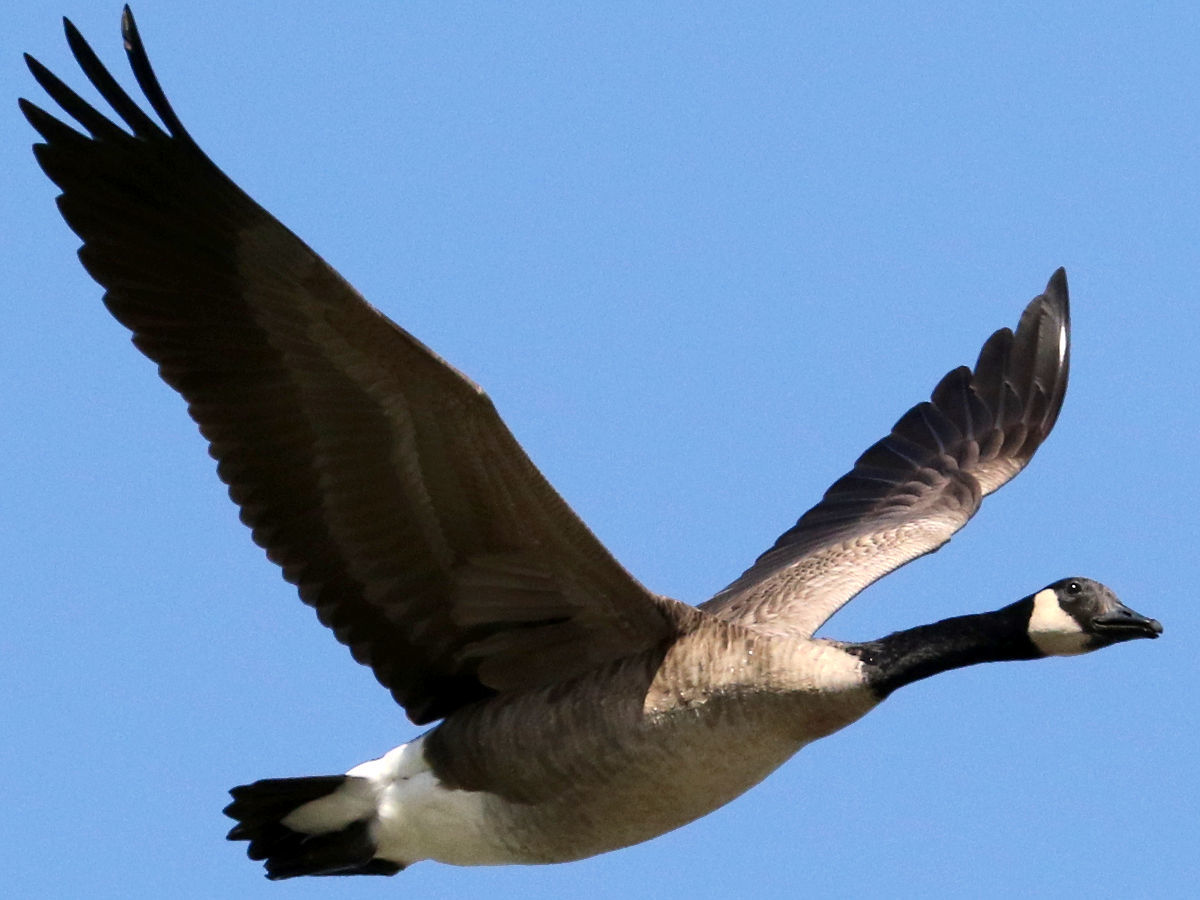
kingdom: Animalia
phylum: Chordata
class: Aves
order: Anseriformes
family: Anatidae
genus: Branta
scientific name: Branta canadensis
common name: Canada goose
